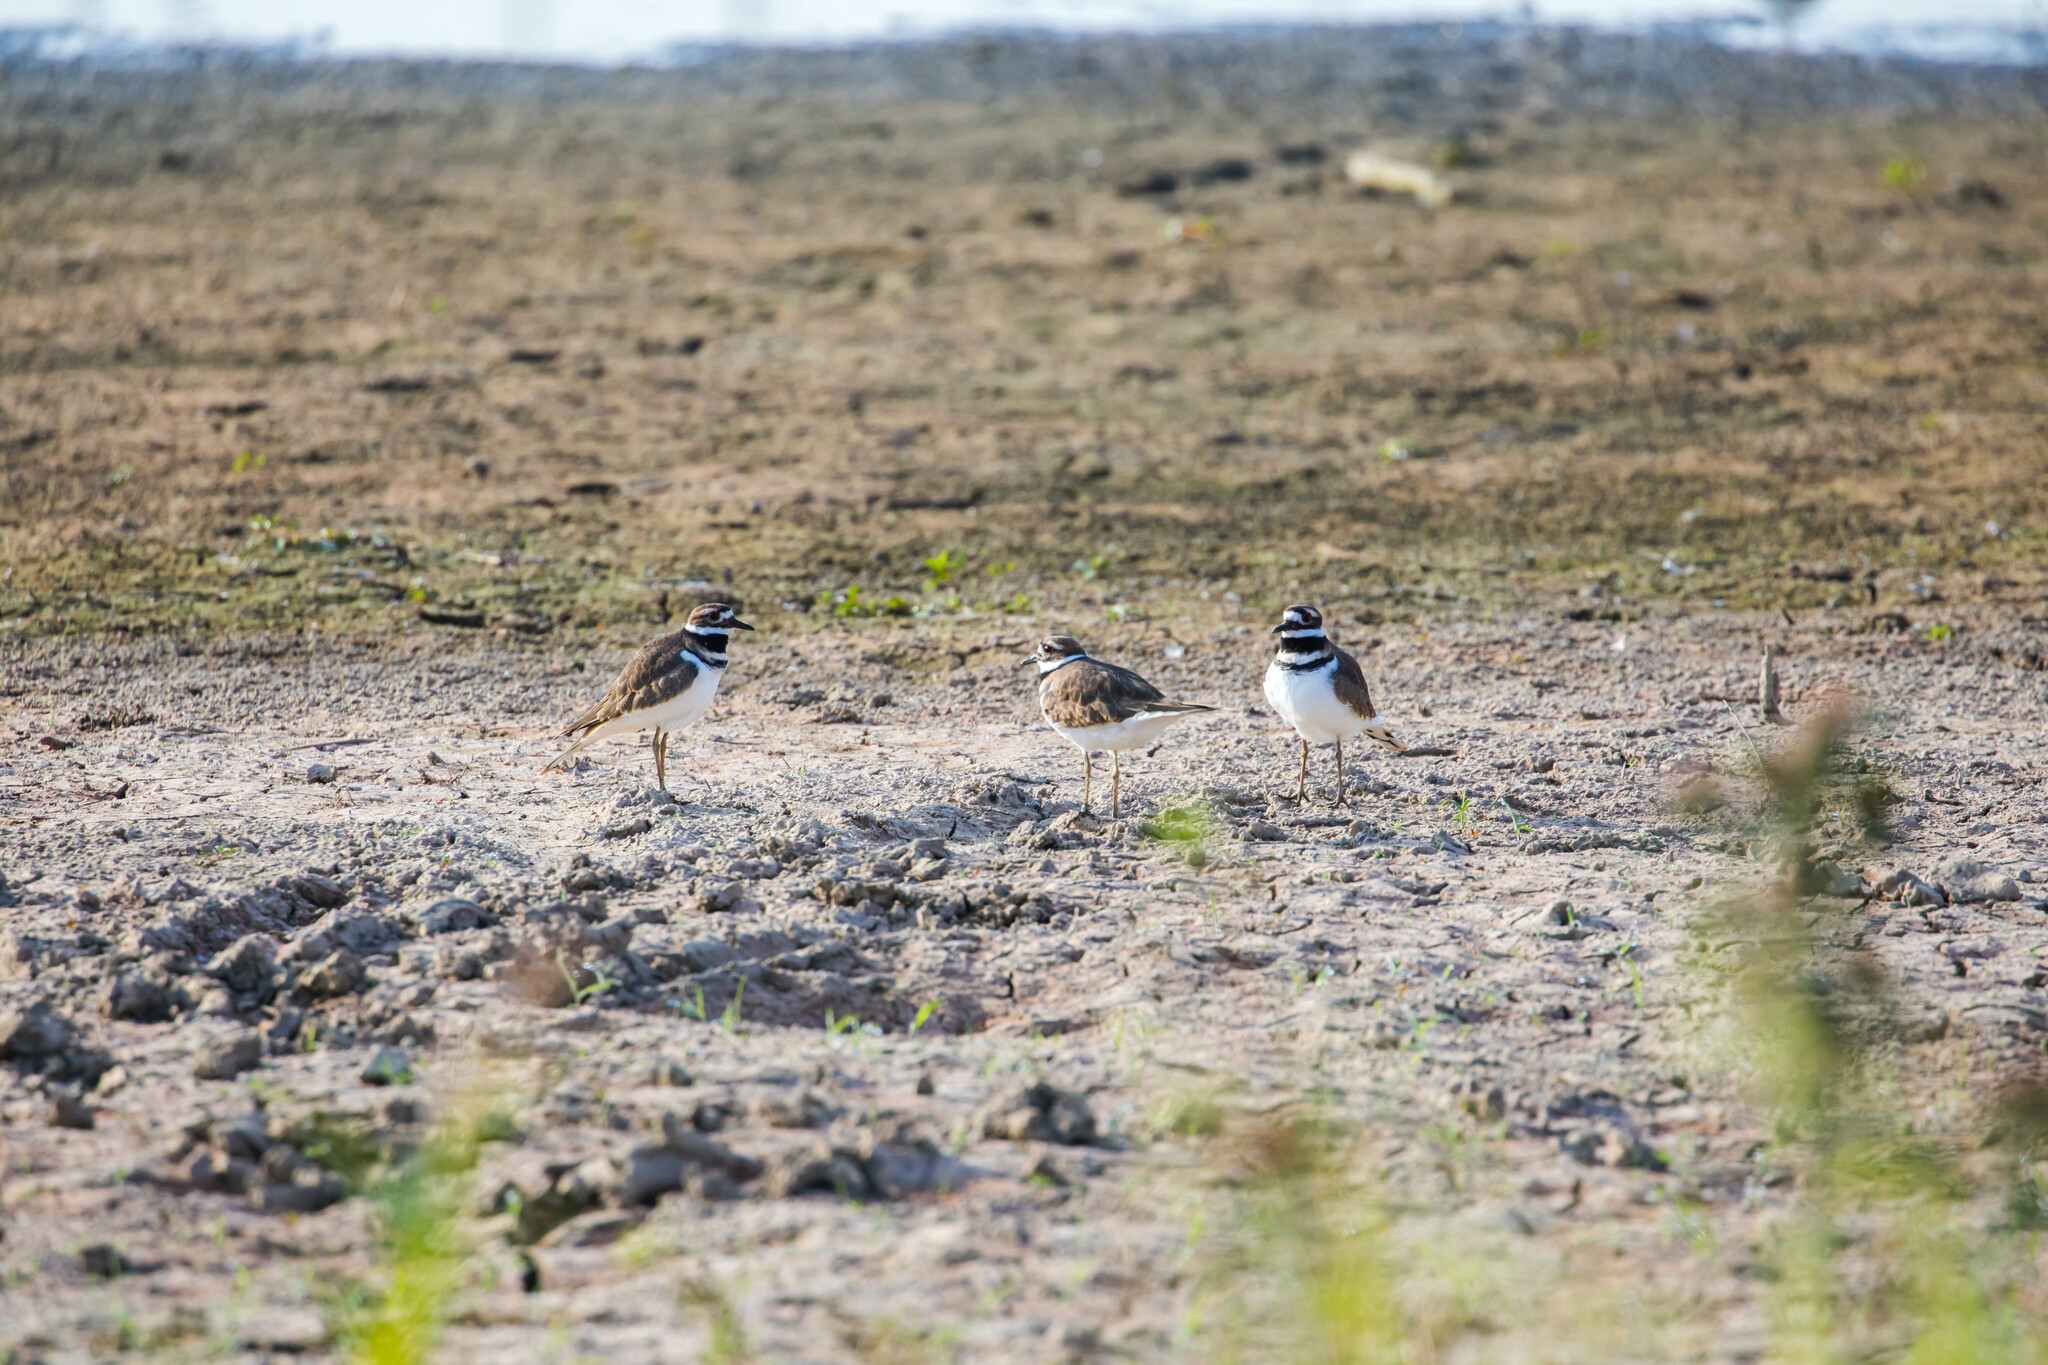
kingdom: Animalia
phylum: Chordata
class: Aves
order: Charadriiformes
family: Charadriidae
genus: Charadrius
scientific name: Charadrius vociferus
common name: Killdeer
